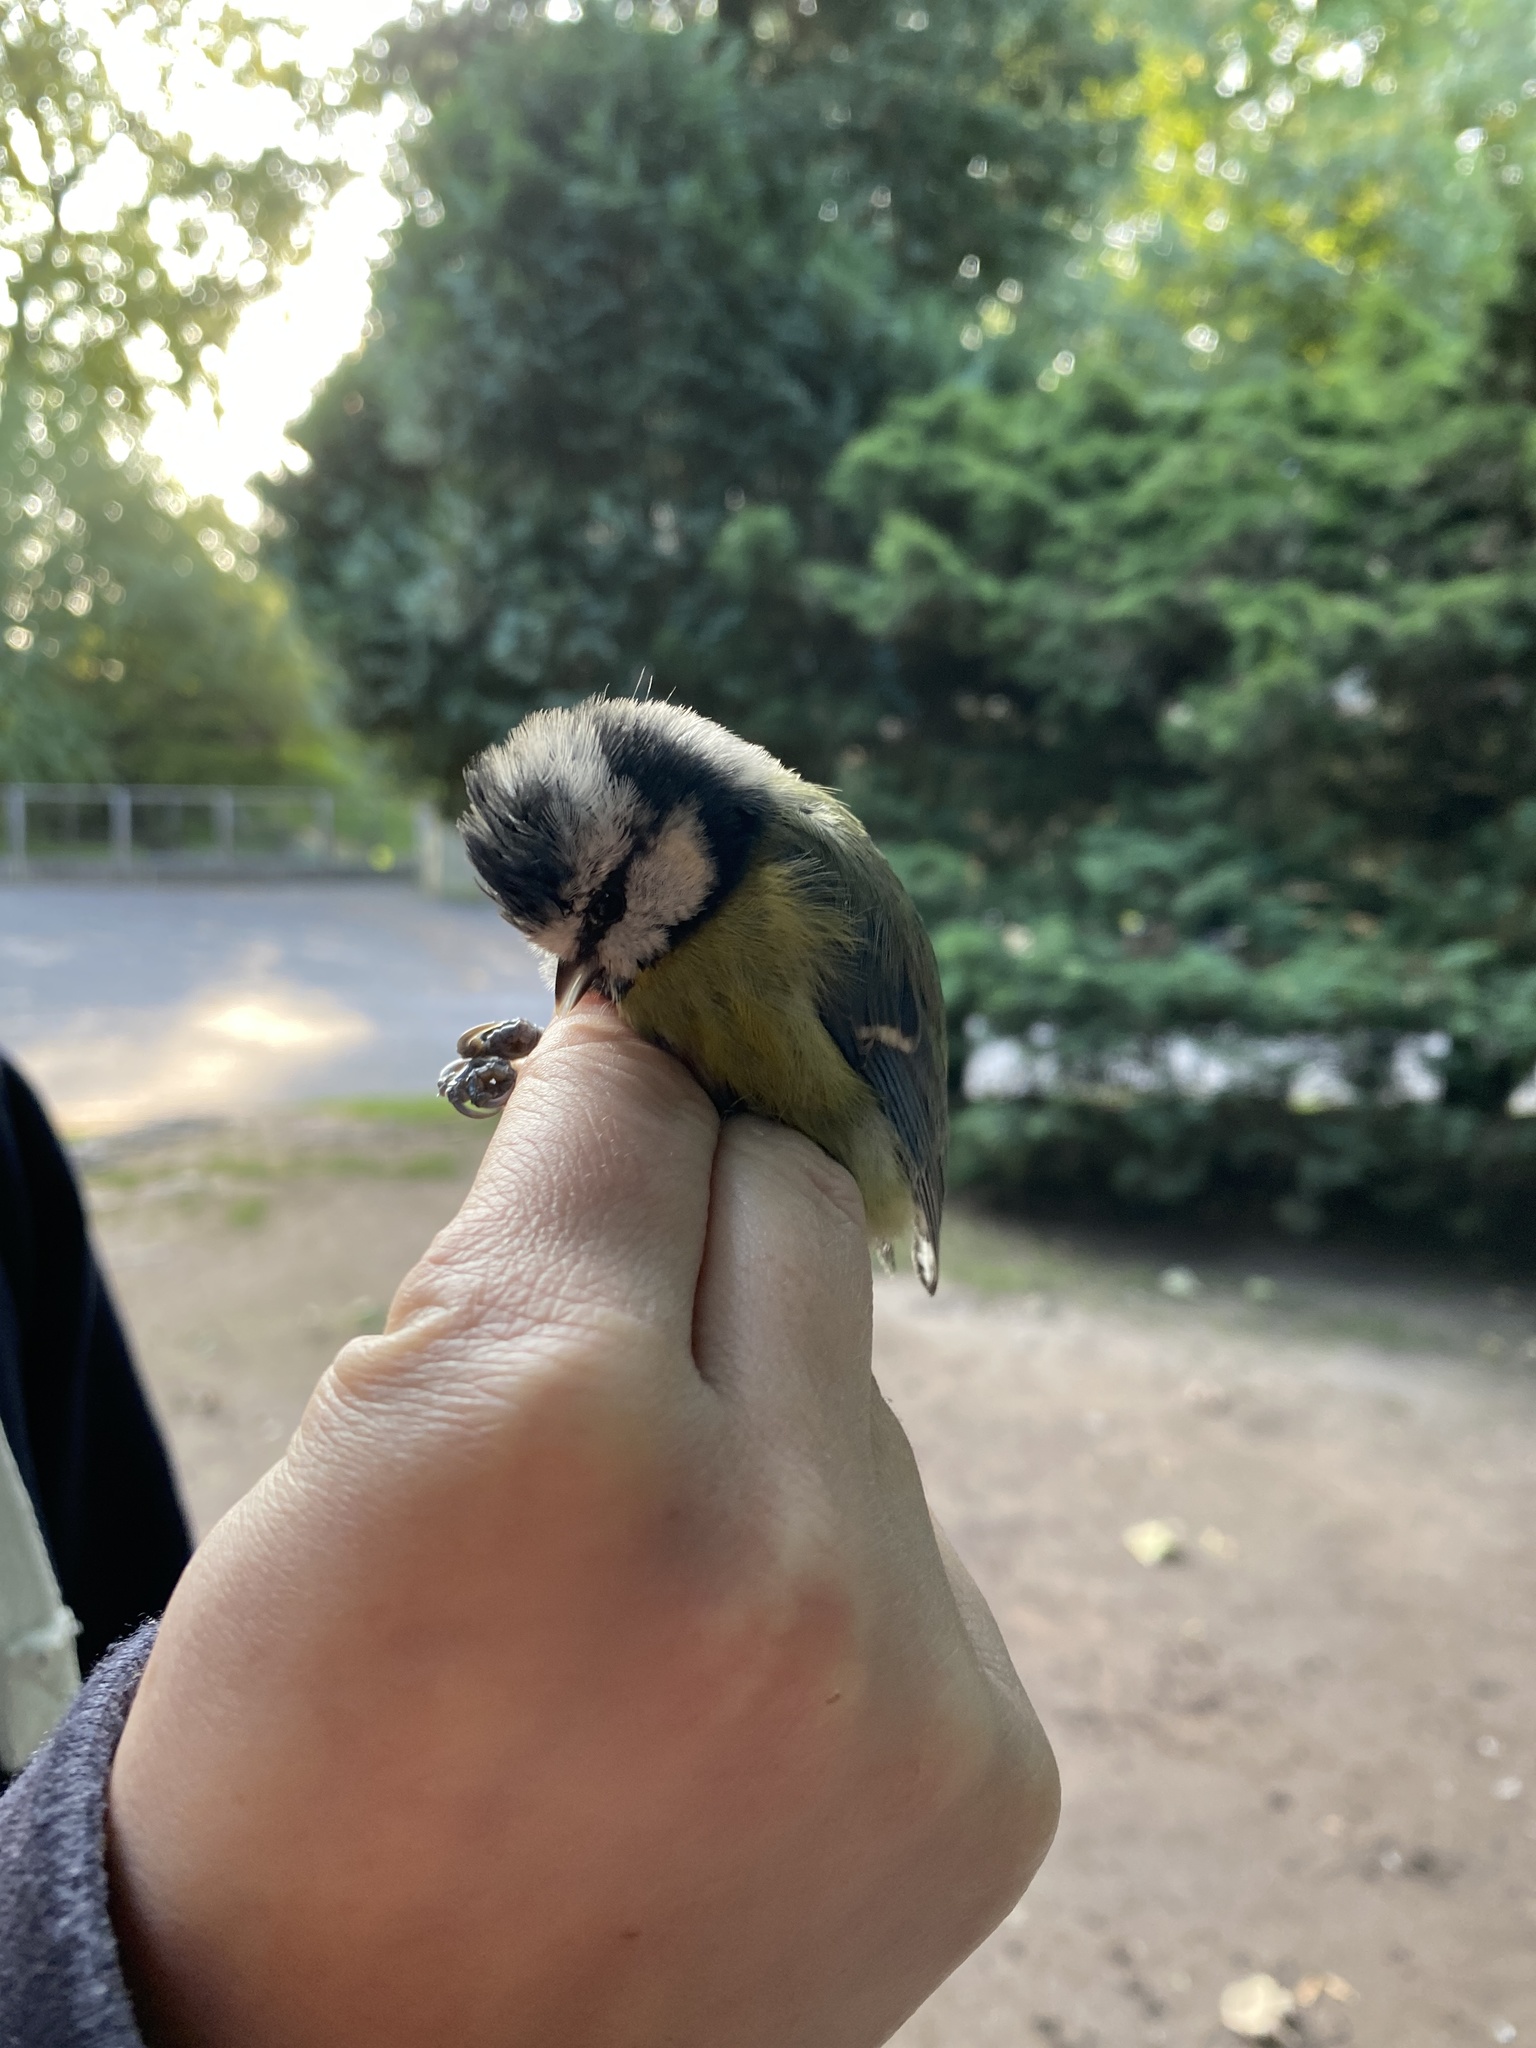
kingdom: Animalia
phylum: Chordata
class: Aves
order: Passeriformes
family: Paridae
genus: Cyanistes
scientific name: Cyanistes caeruleus
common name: Eurasian blue tit
